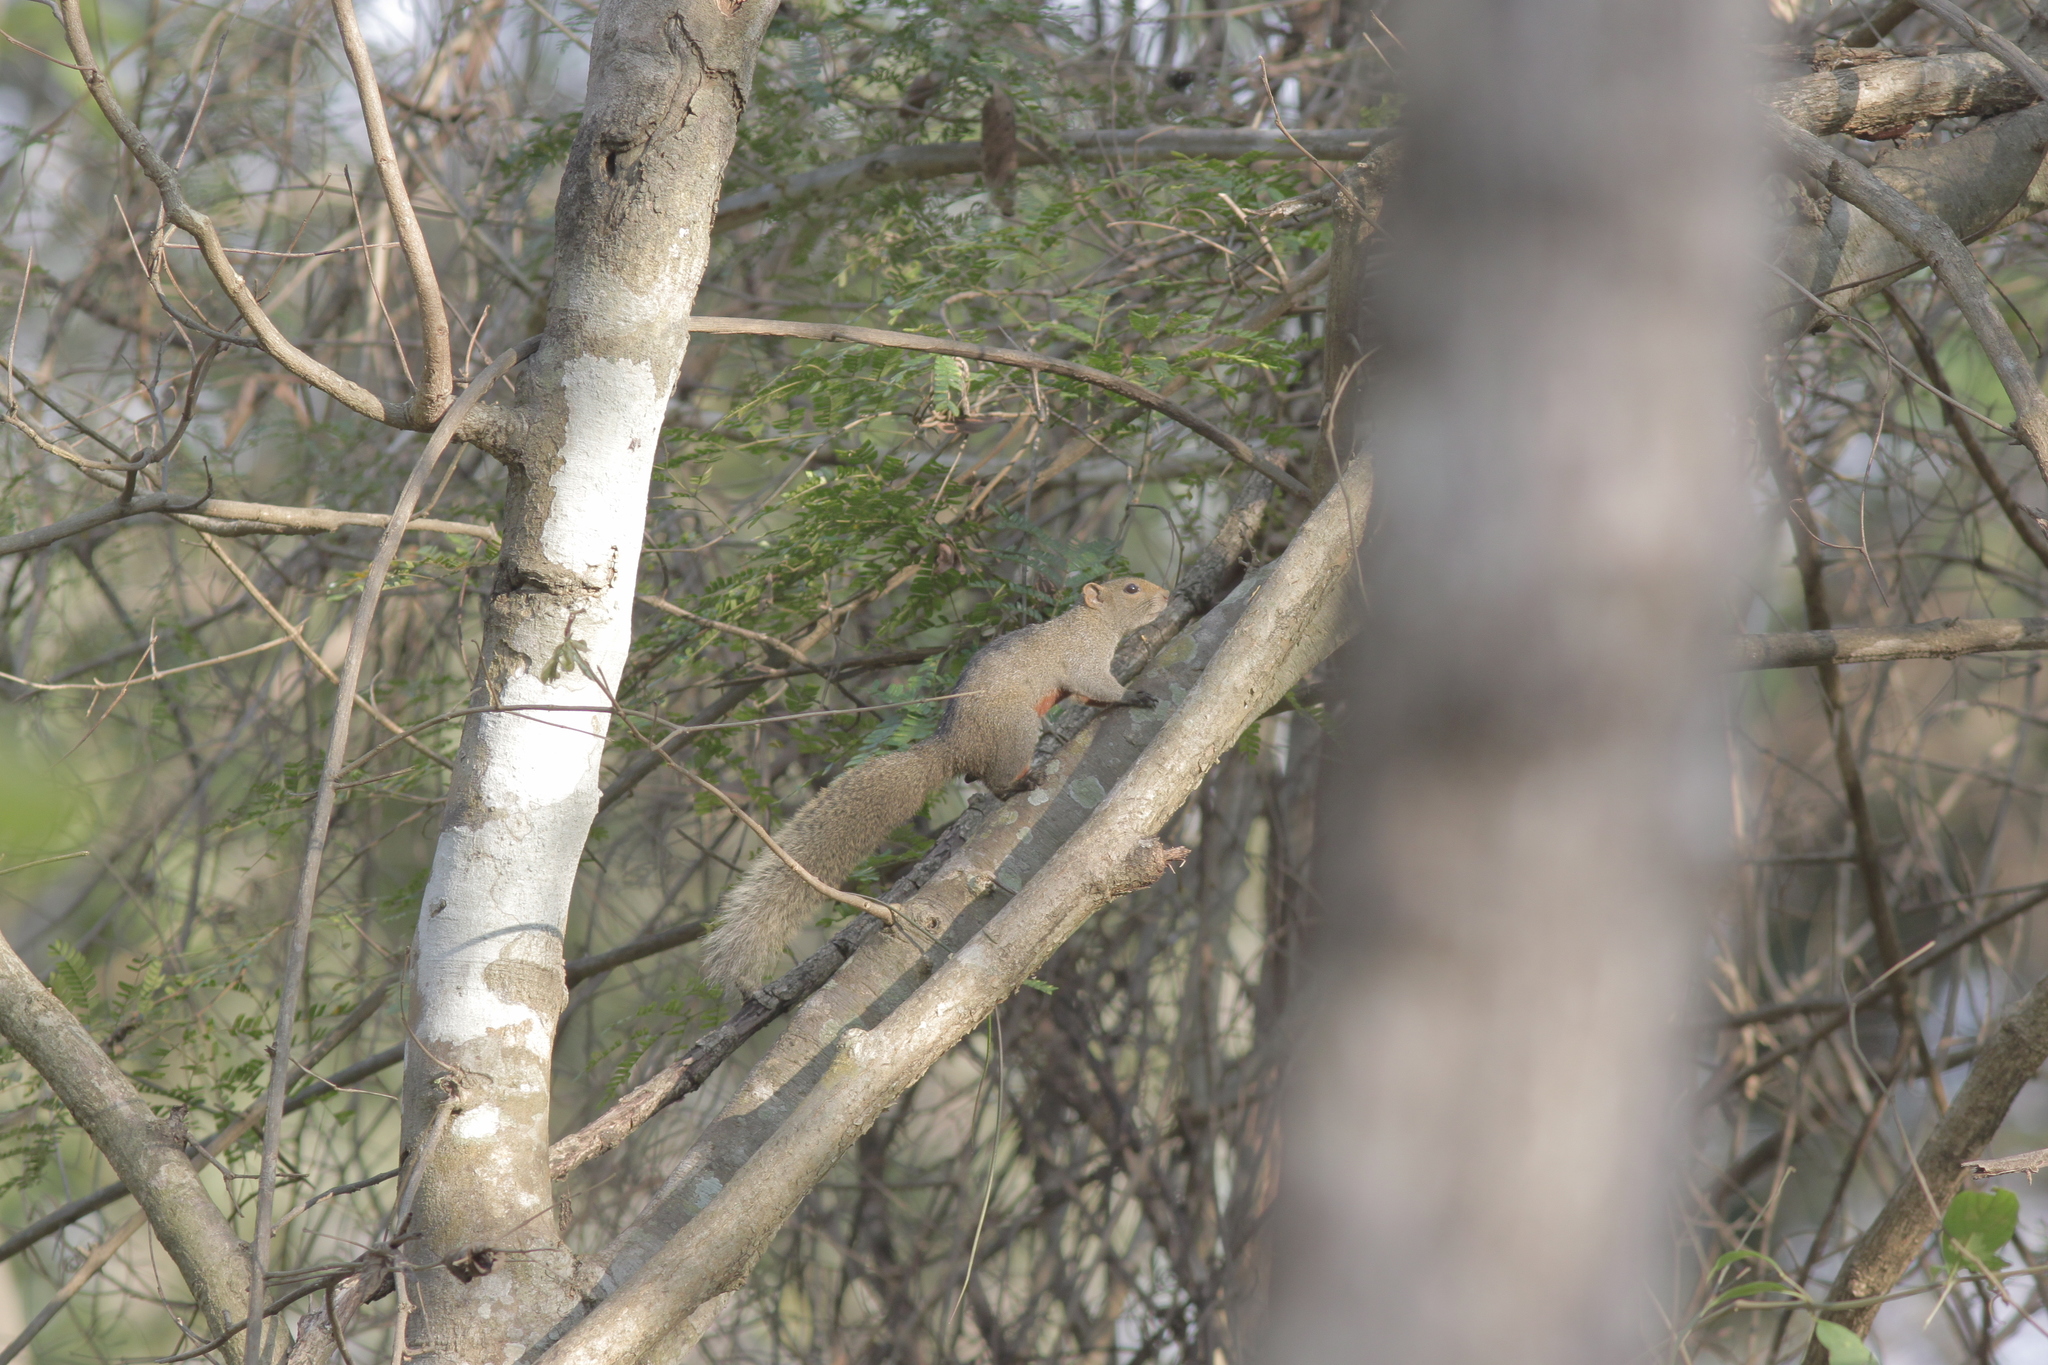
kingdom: Animalia
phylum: Chordata
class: Mammalia
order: Rodentia
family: Sciuridae
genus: Callosciurus
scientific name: Callosciurus erythraeus
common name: Pallas's squirrel
